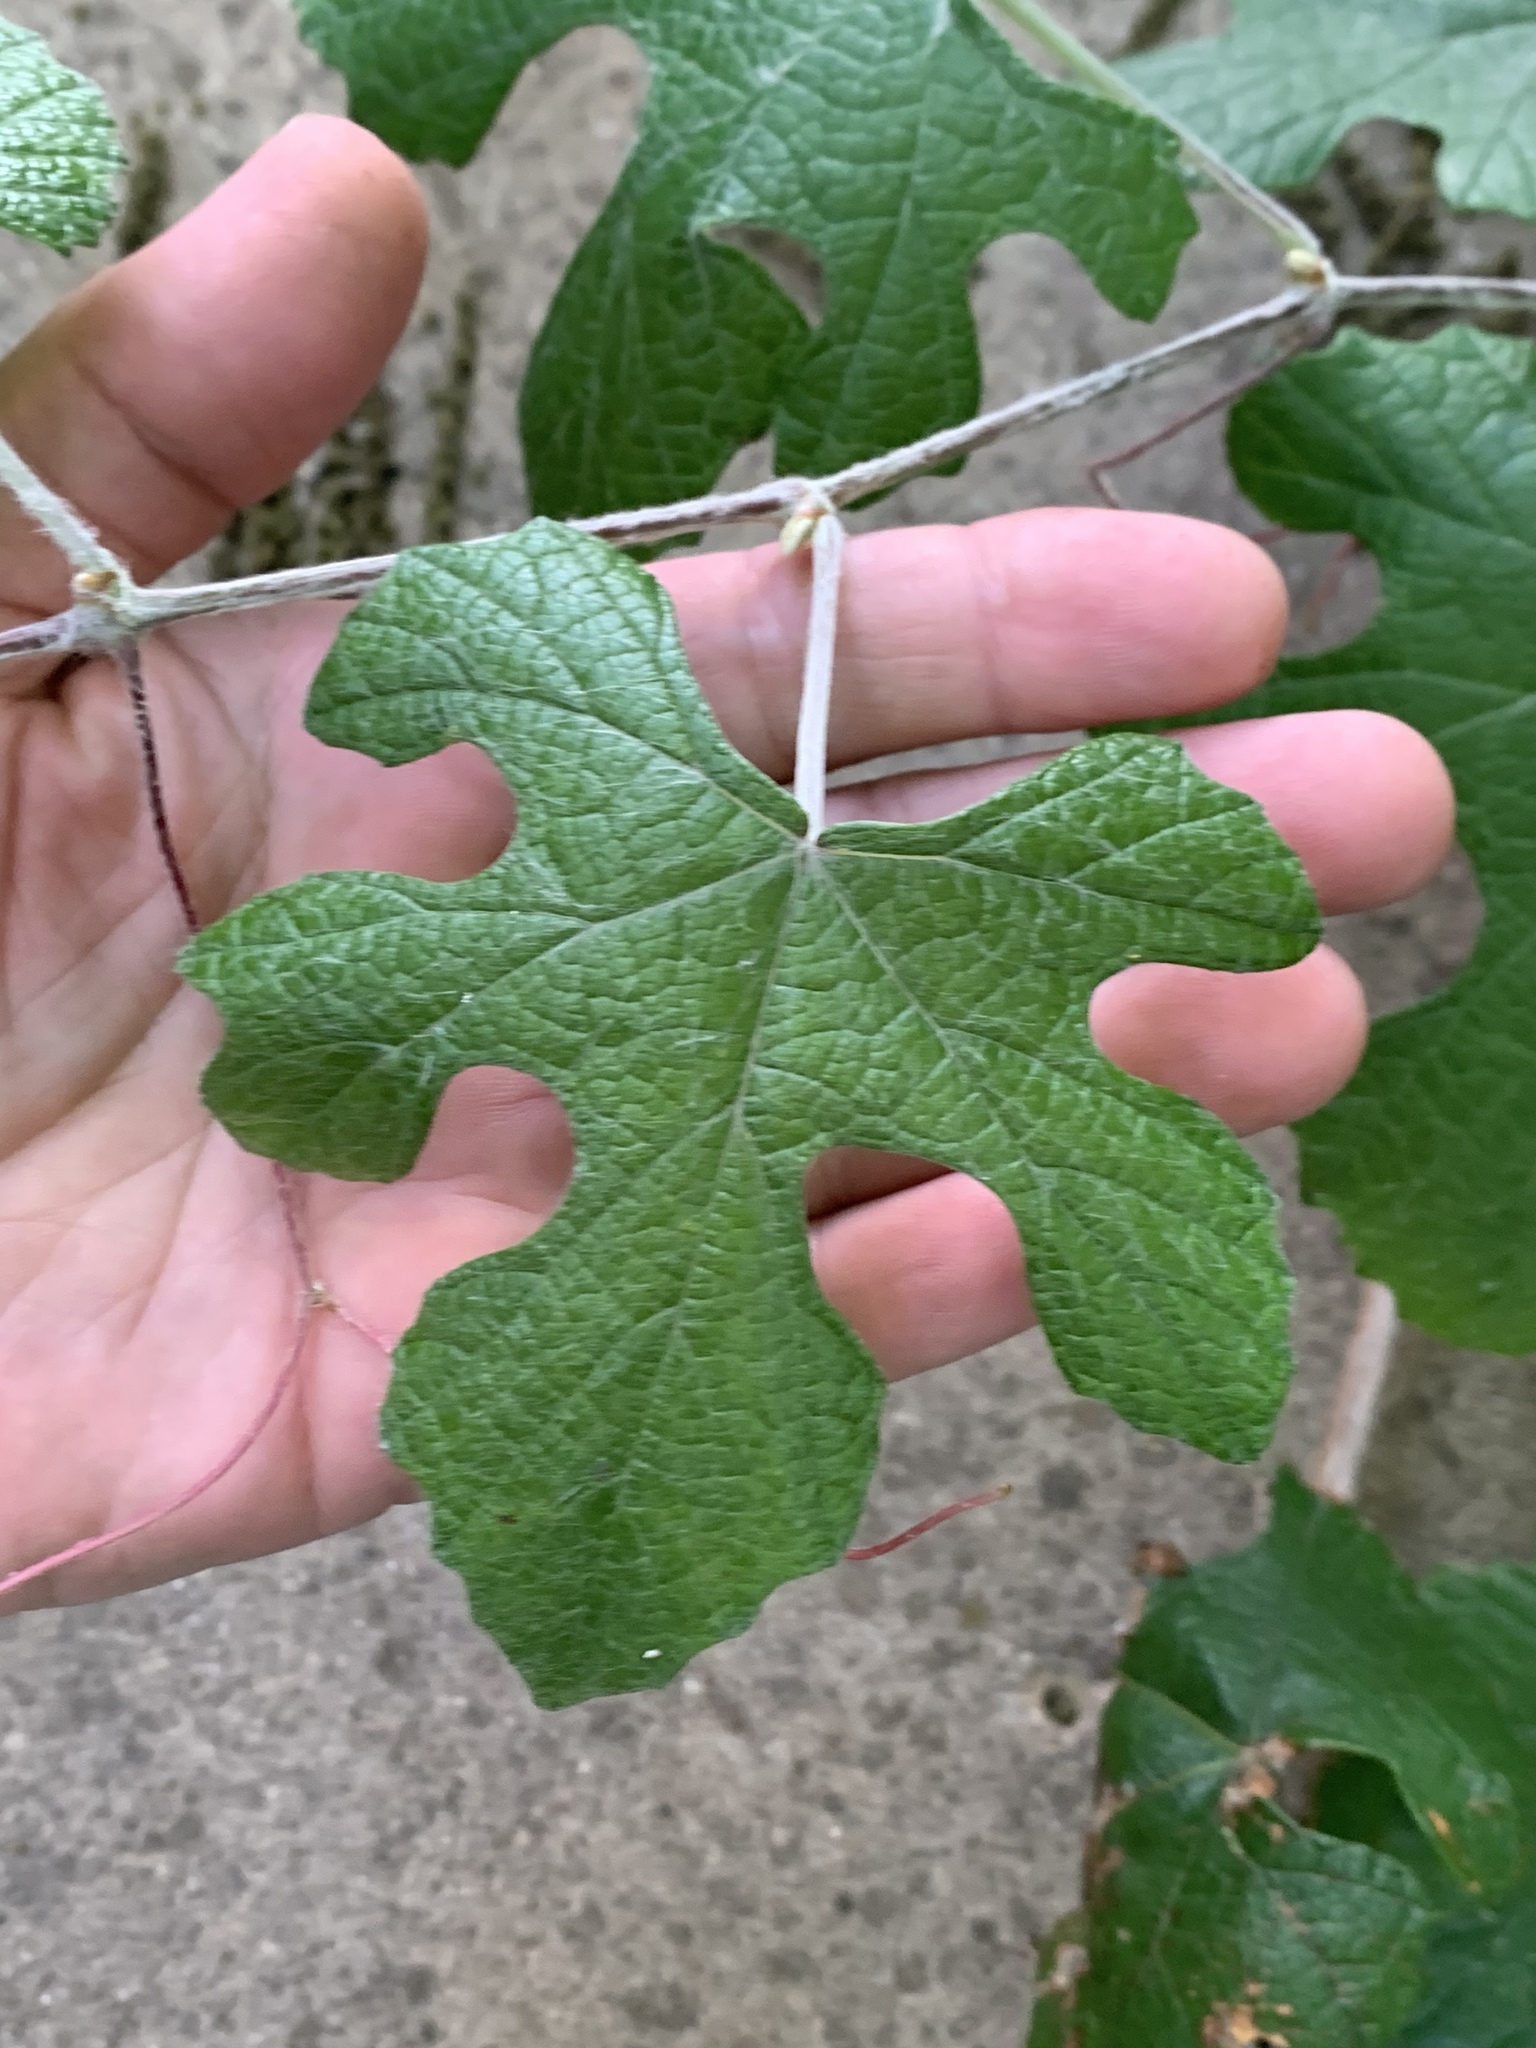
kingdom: Plantae
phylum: Tracheophyta
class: Magnoliopsida
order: Vitales
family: Vitaceae
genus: Vitis
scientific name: Vitis mustangensis
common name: Mustang grape
